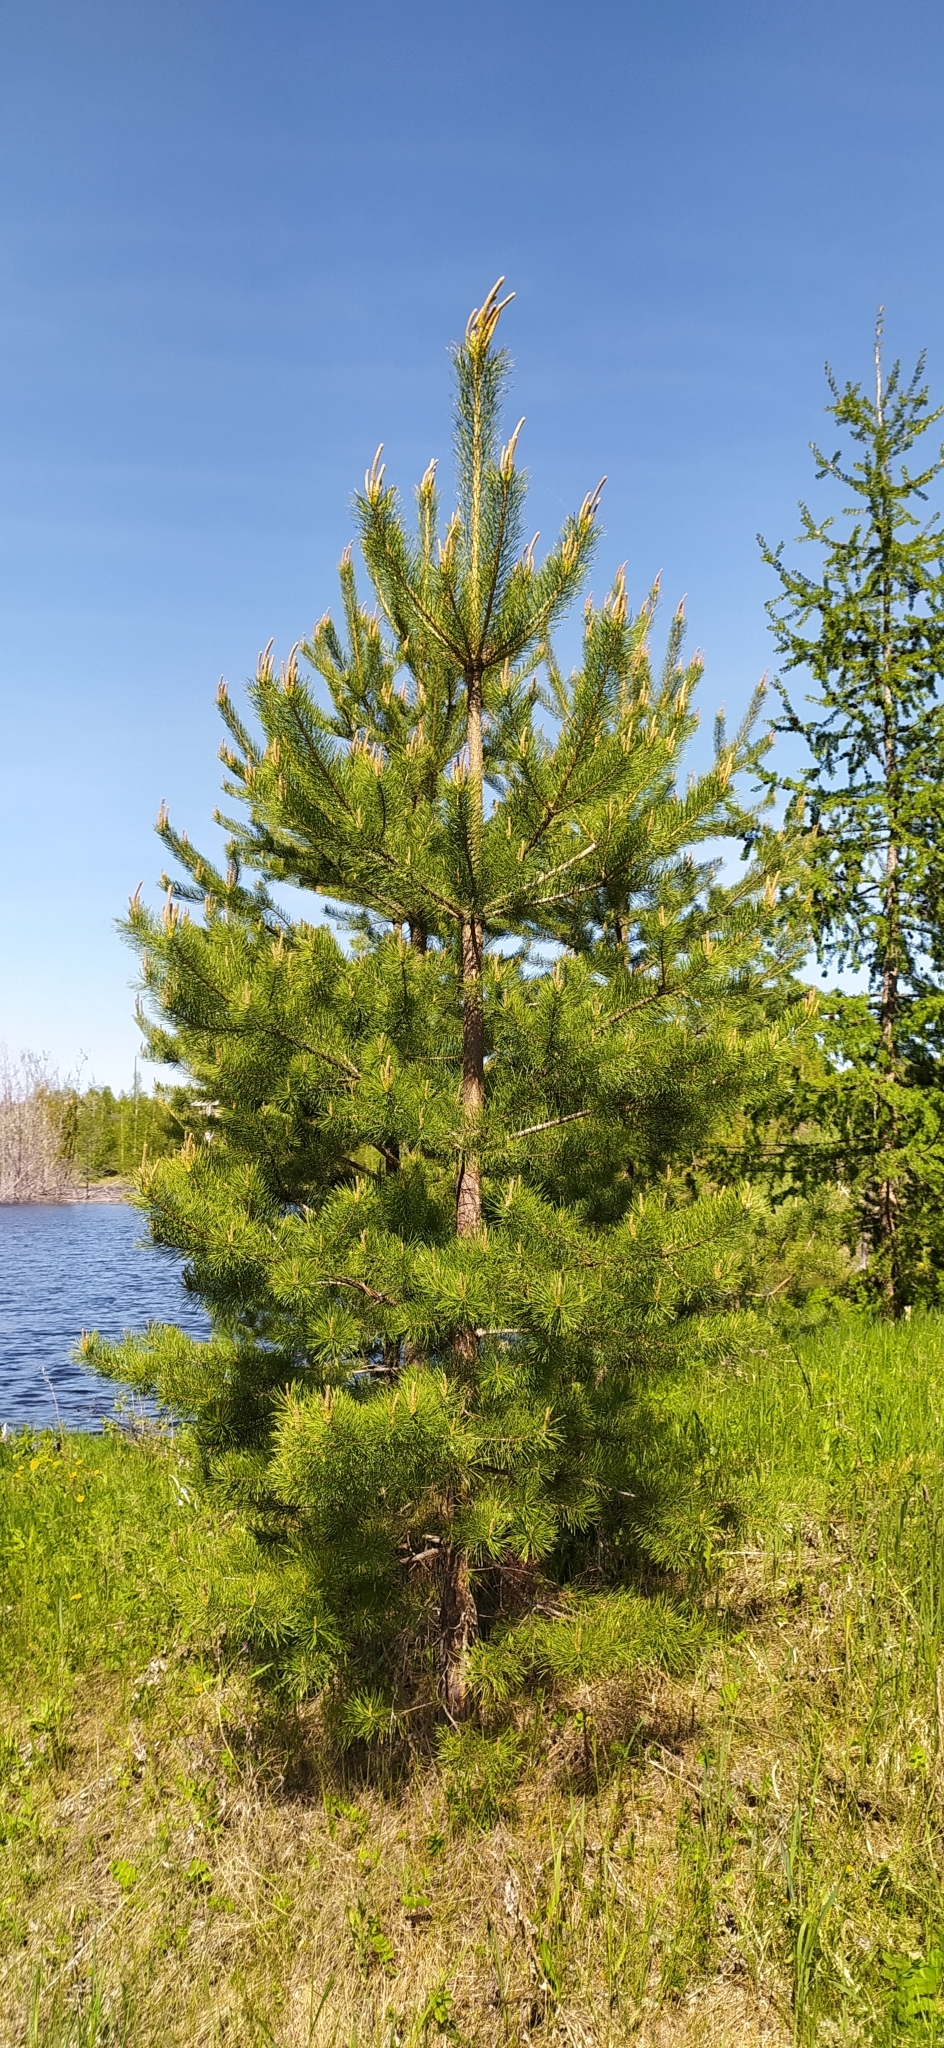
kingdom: Plantae
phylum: Tracheophyta
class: Pinopsida
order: Pinales
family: Pinaceae
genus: Pinus
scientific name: Pinus sylvestris
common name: Scots pine
